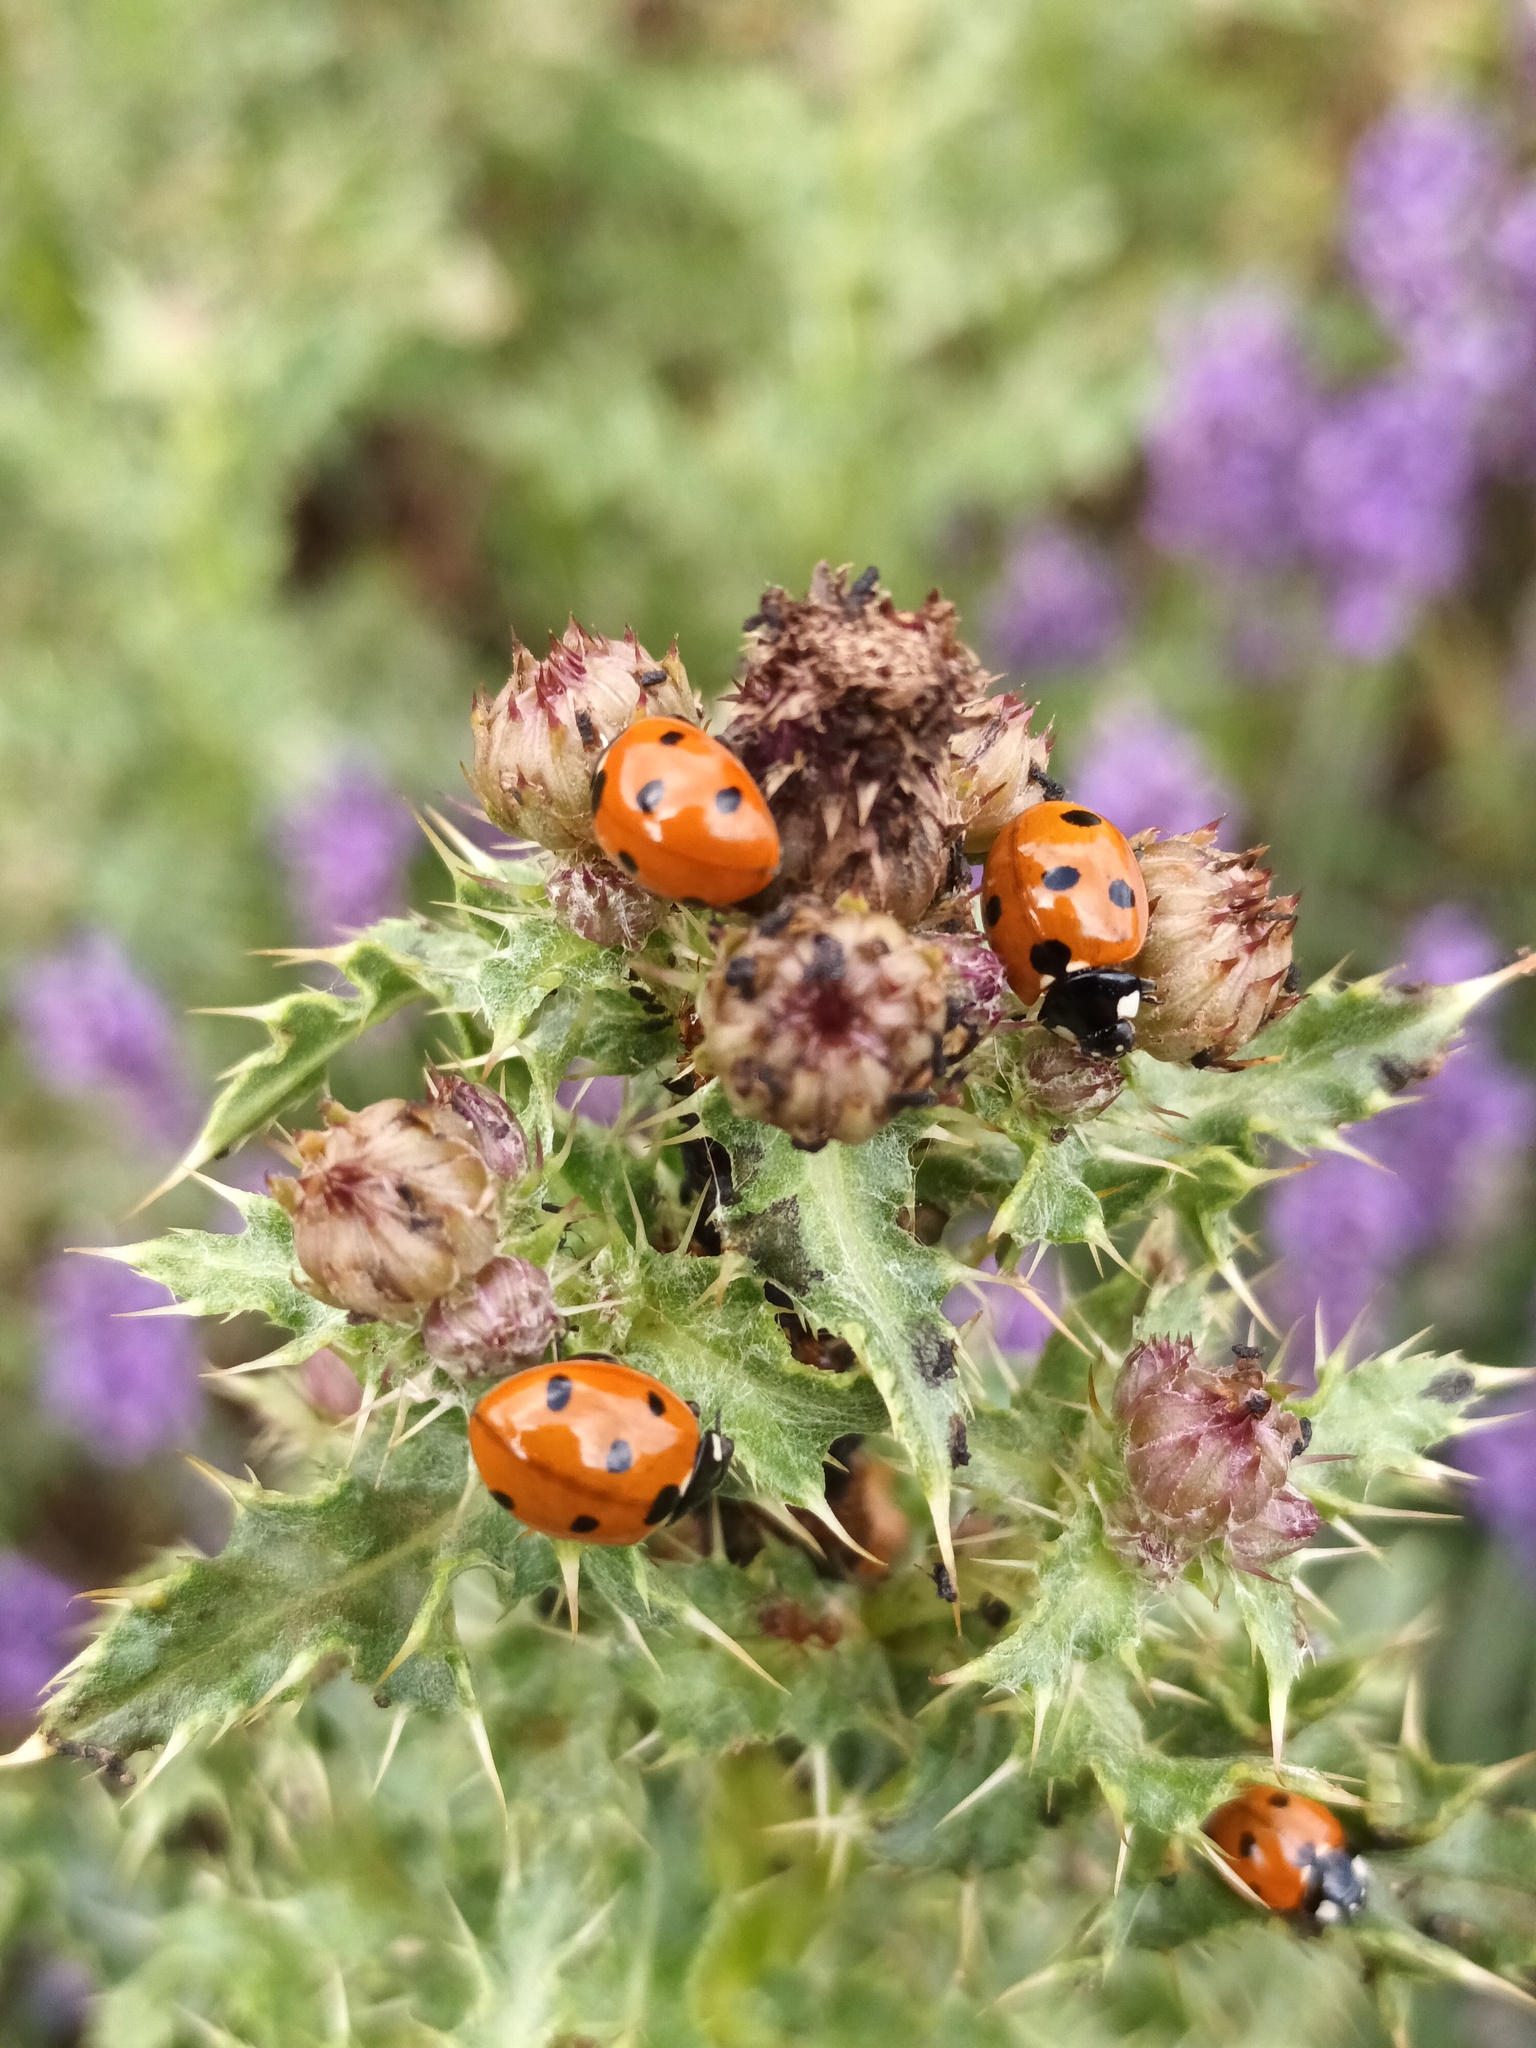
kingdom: Animalia
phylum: Arthropoda
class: Insecta
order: Coleoptera
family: Coccinellidae
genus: Coccinella
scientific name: Coccinella septempunctata
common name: Sevenspotted lady beetle
